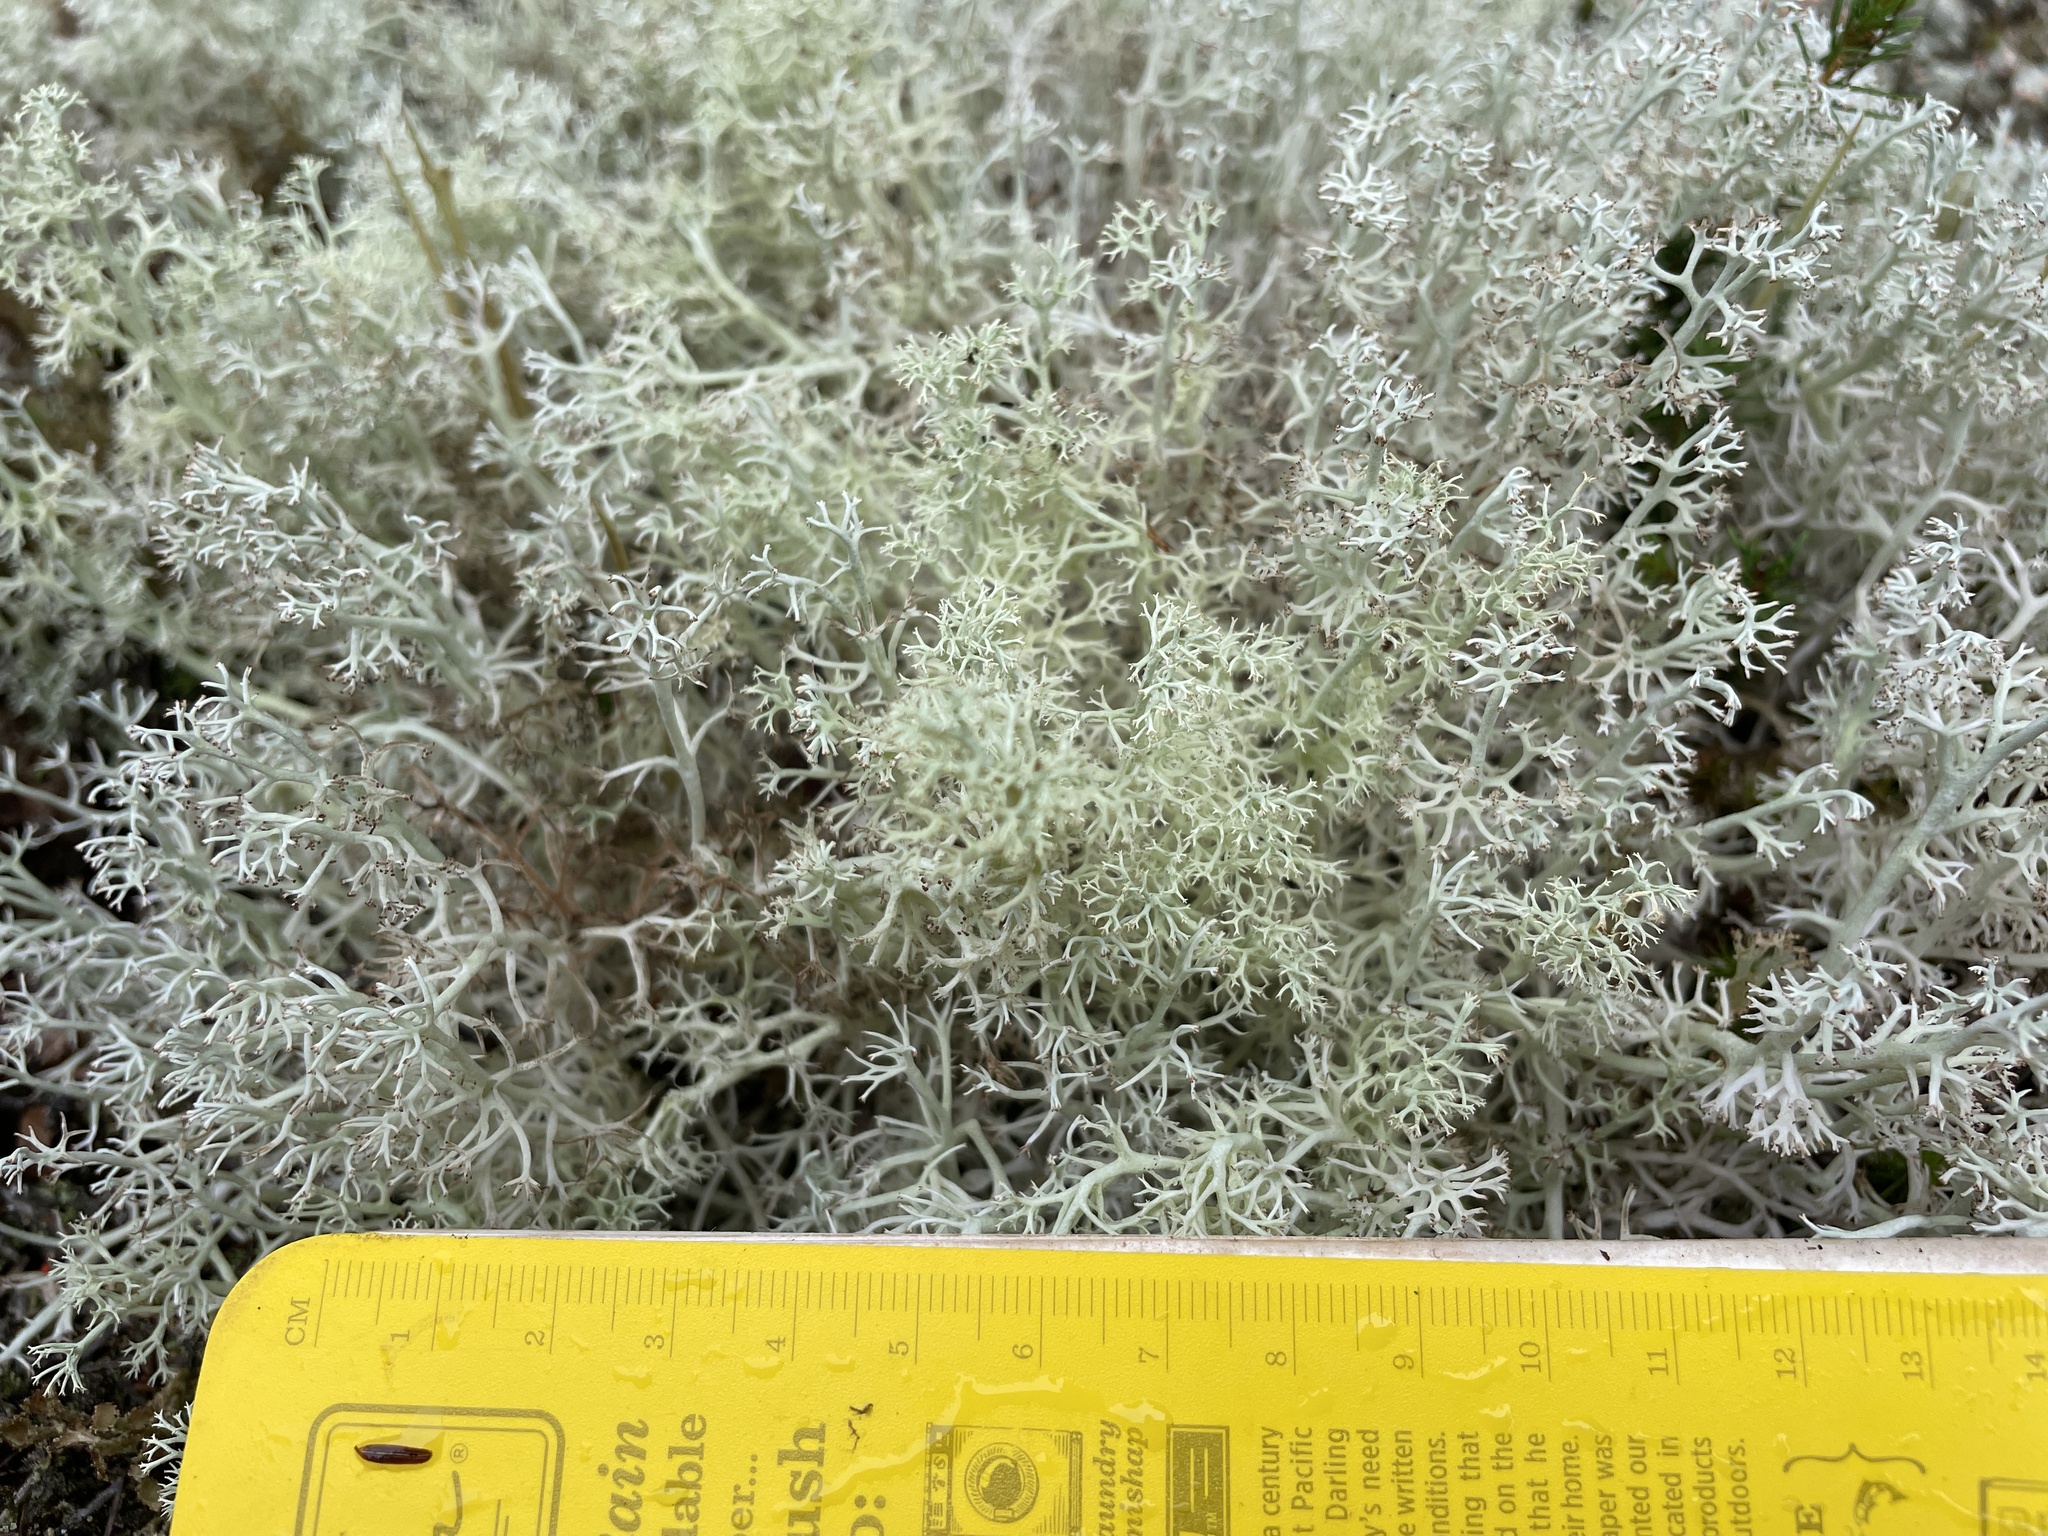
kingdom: Fungi
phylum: Ascomycota
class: Lecanoromycetes
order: Lecanorales
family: Cladoniaceae
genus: Cladonia
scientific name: Cladonia rangiferina
